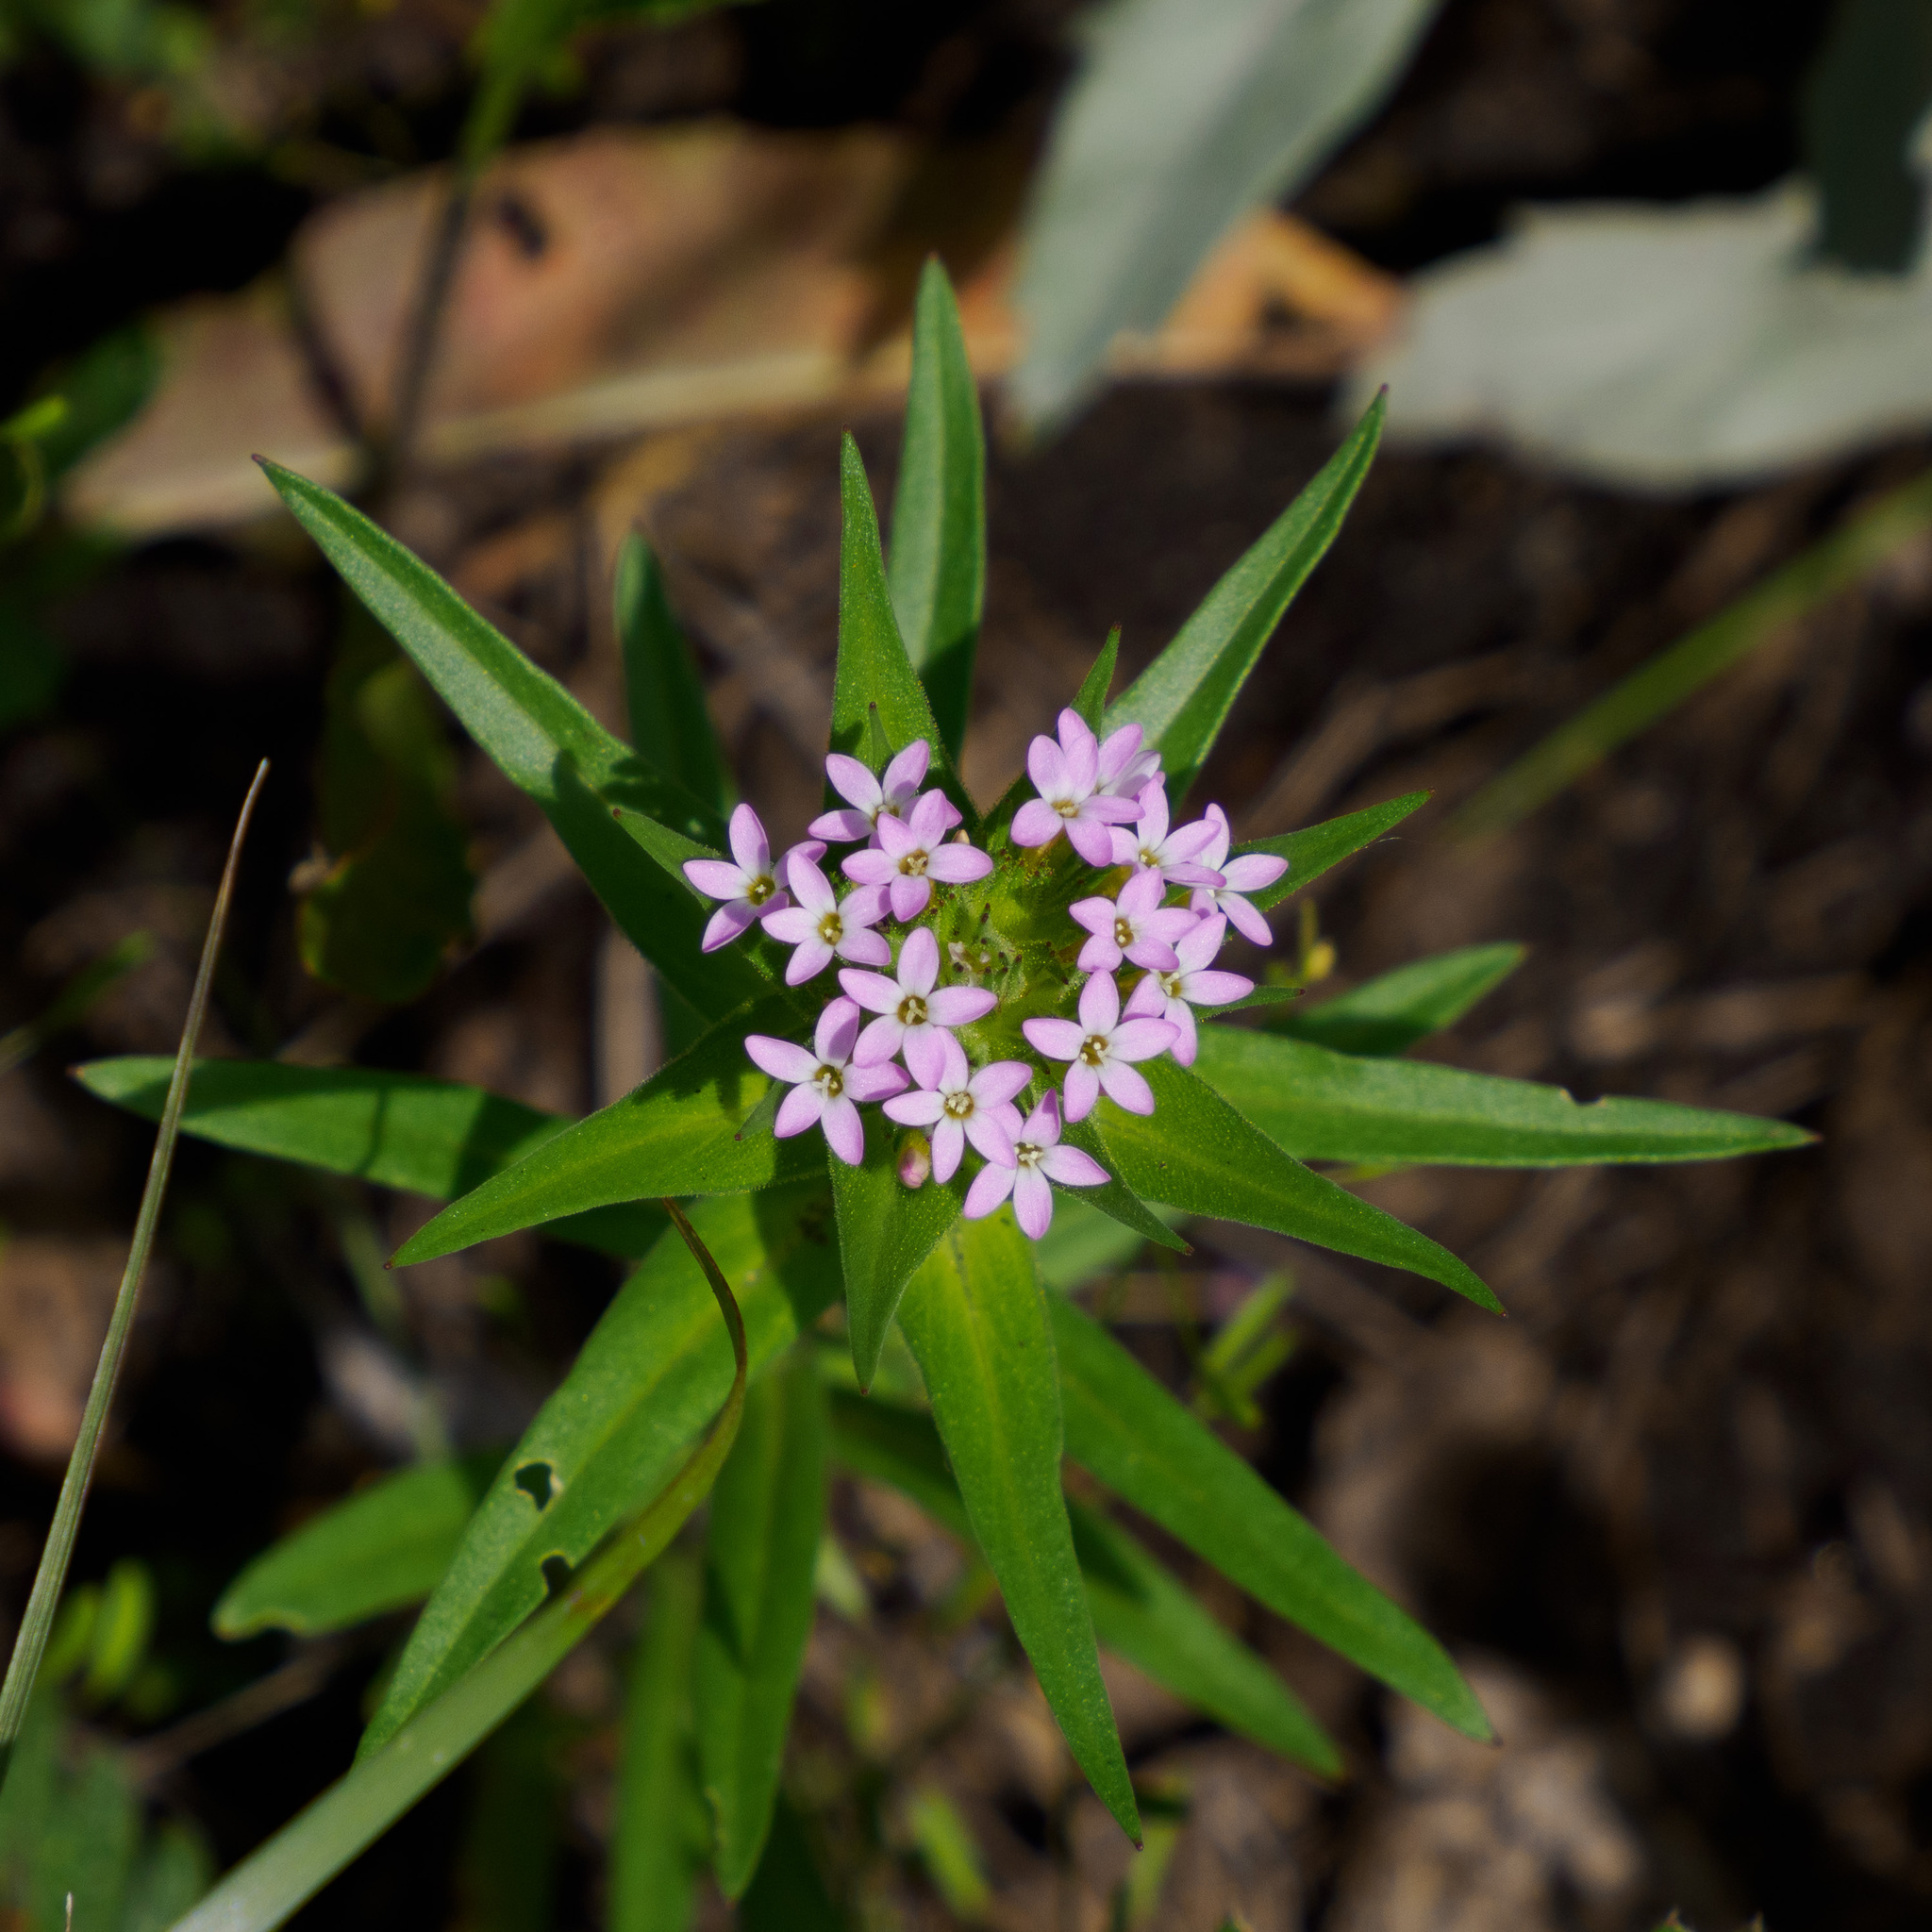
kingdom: Plantae
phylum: Tracheophyta
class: Magnoliopsida
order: Ericales
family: Polemoniaceae
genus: Collomia
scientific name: Collomia linearis
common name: Tiny trumpet
